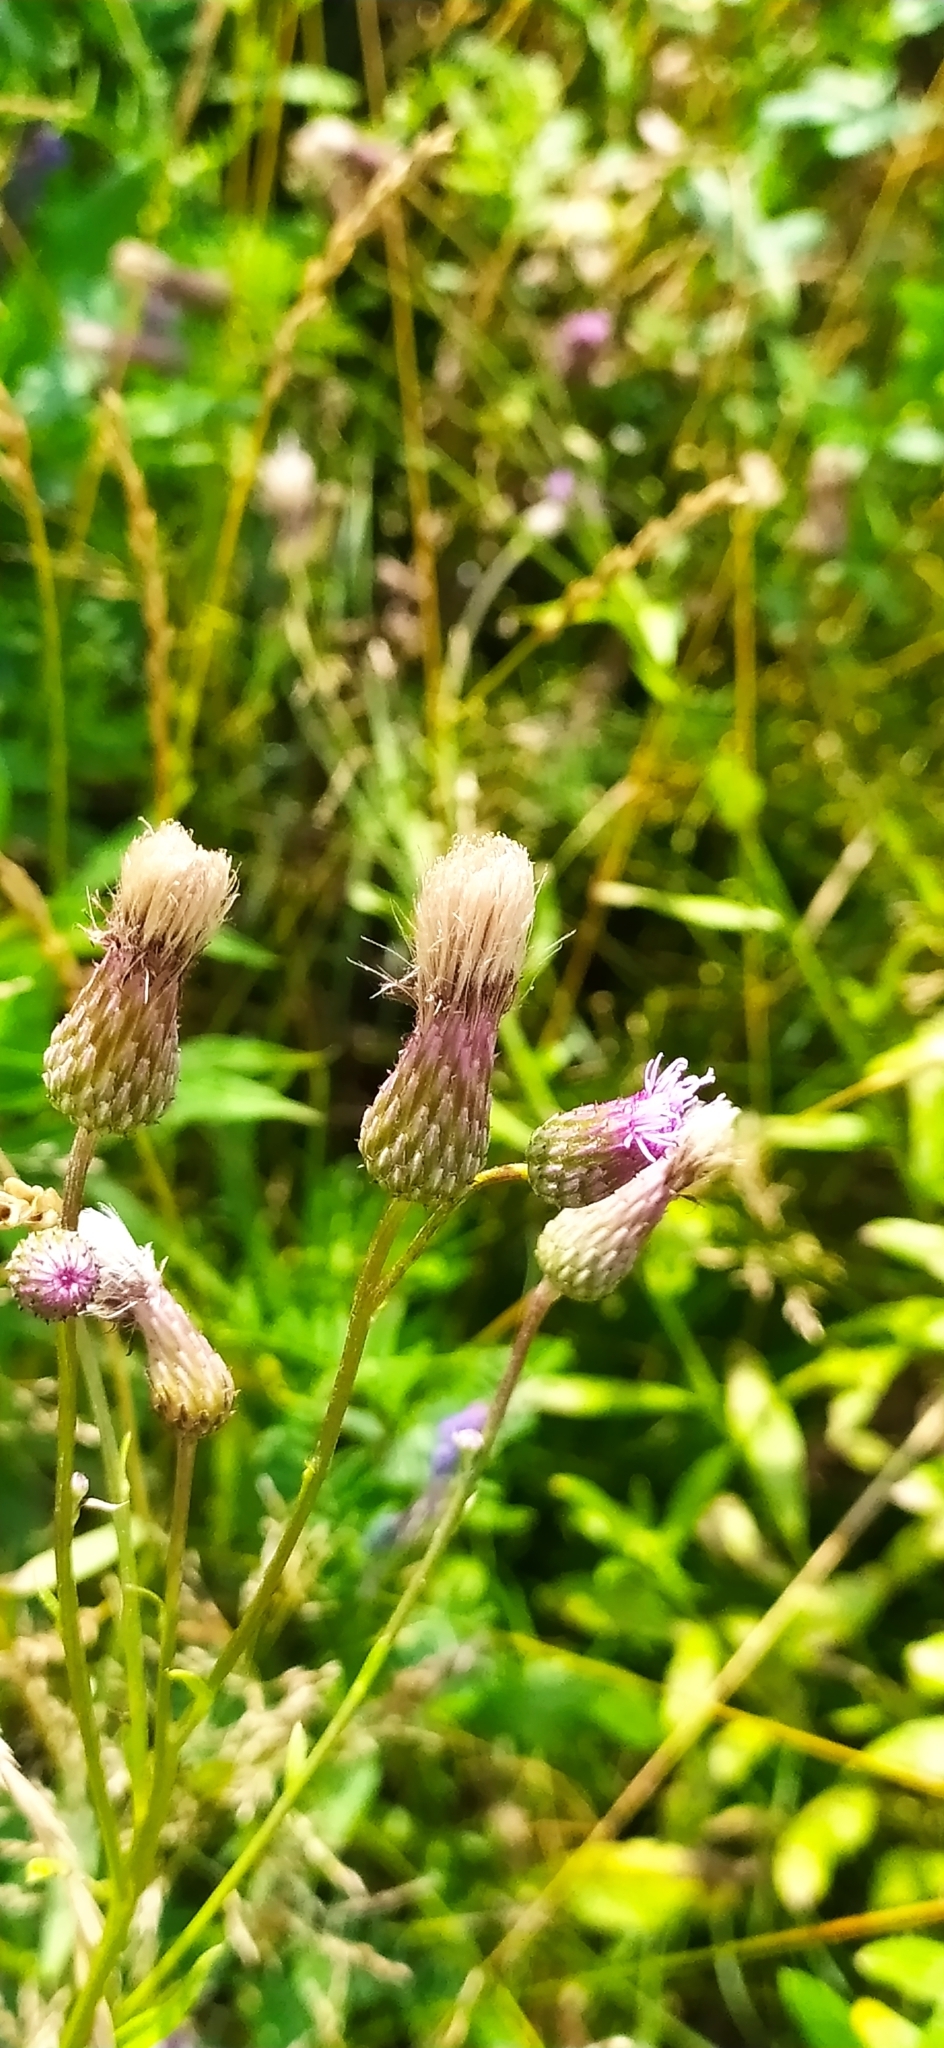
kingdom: Plantae
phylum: Tracheophyta
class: Magnoliopsida
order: Asterales
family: Asteraceae
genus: Cirsium
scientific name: Cirsium arvense
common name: Creeping thistle
